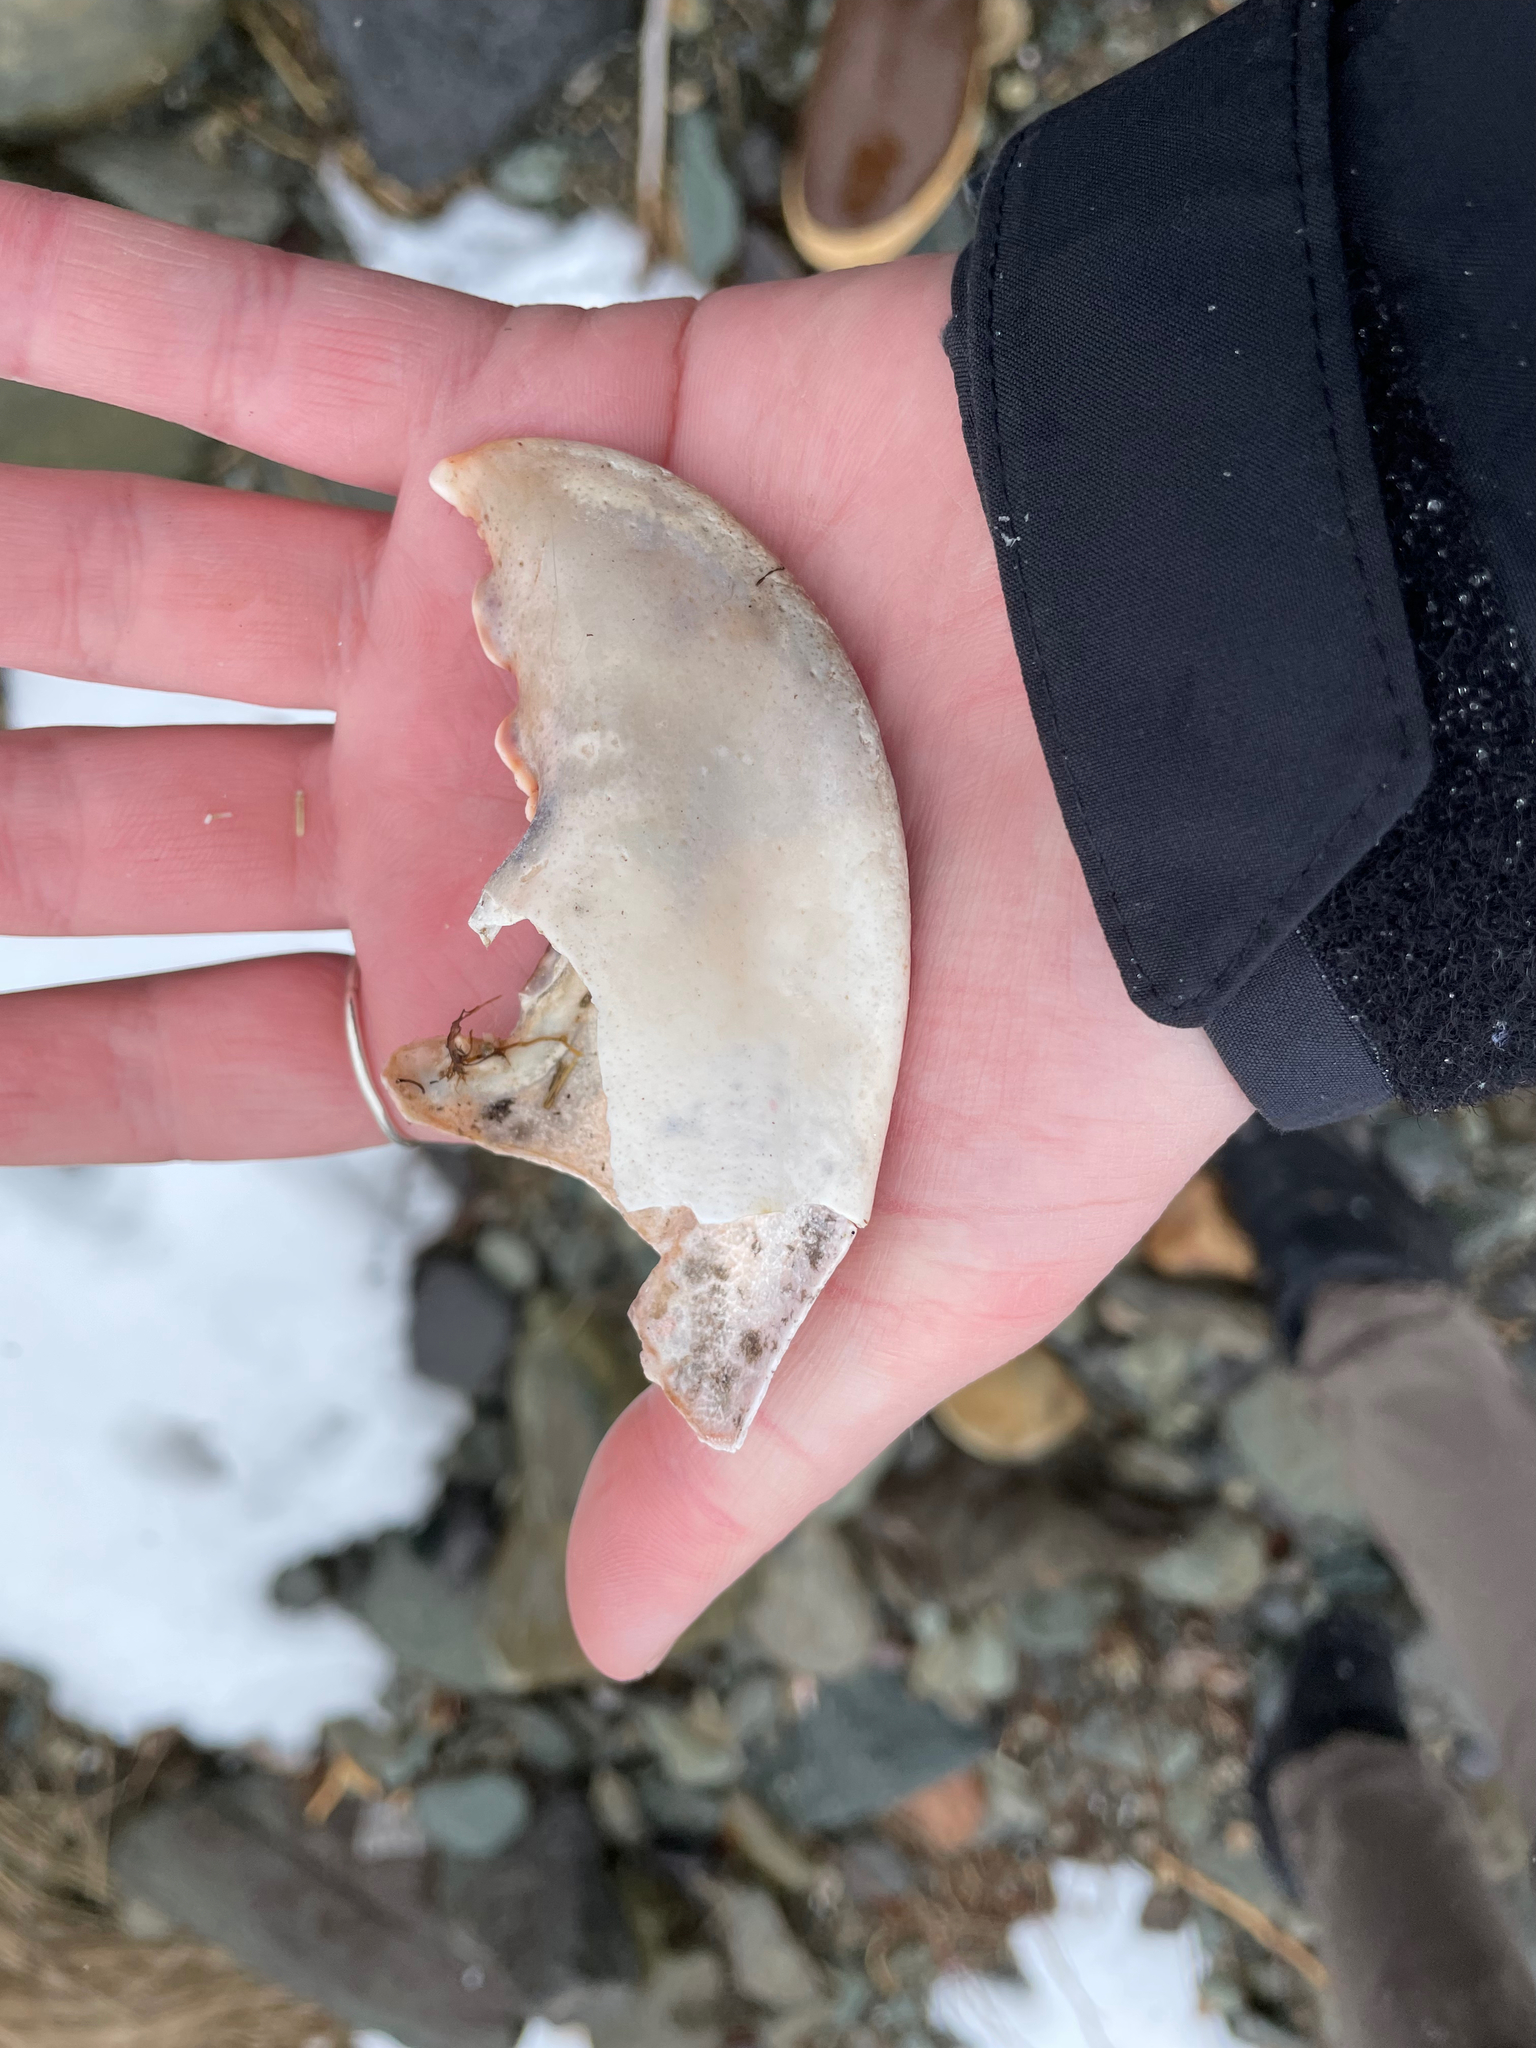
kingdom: Animalia
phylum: Arthropoda
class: Malacostraca
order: Decapoda
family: Nephropidae
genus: Homarus
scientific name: Homarus americanus
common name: American lobster
